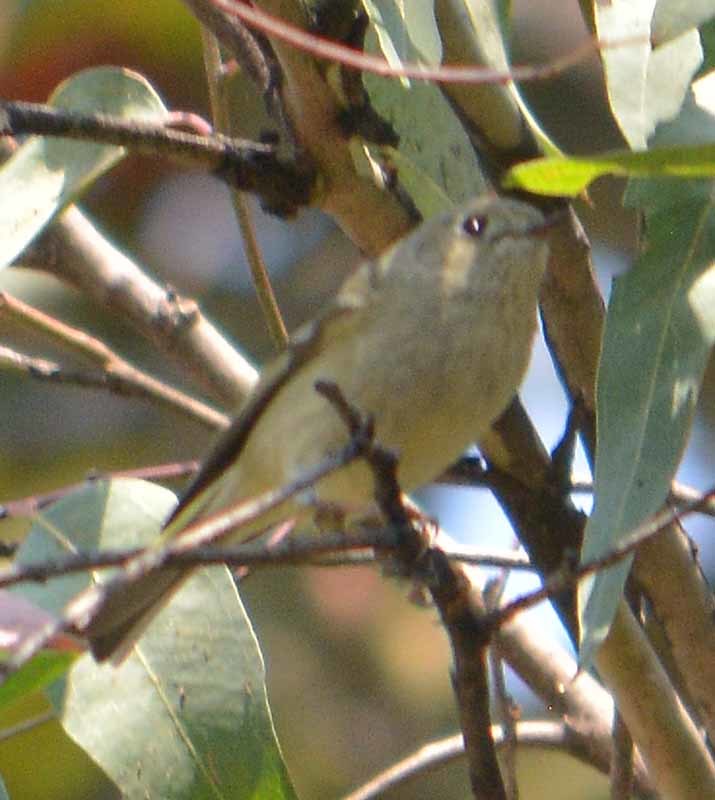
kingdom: Animalia
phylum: Chordata
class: Aves
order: Passeriformes
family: Regulidae
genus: Regulus
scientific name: Regulus calendula
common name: Ruby-crowned kinglet
